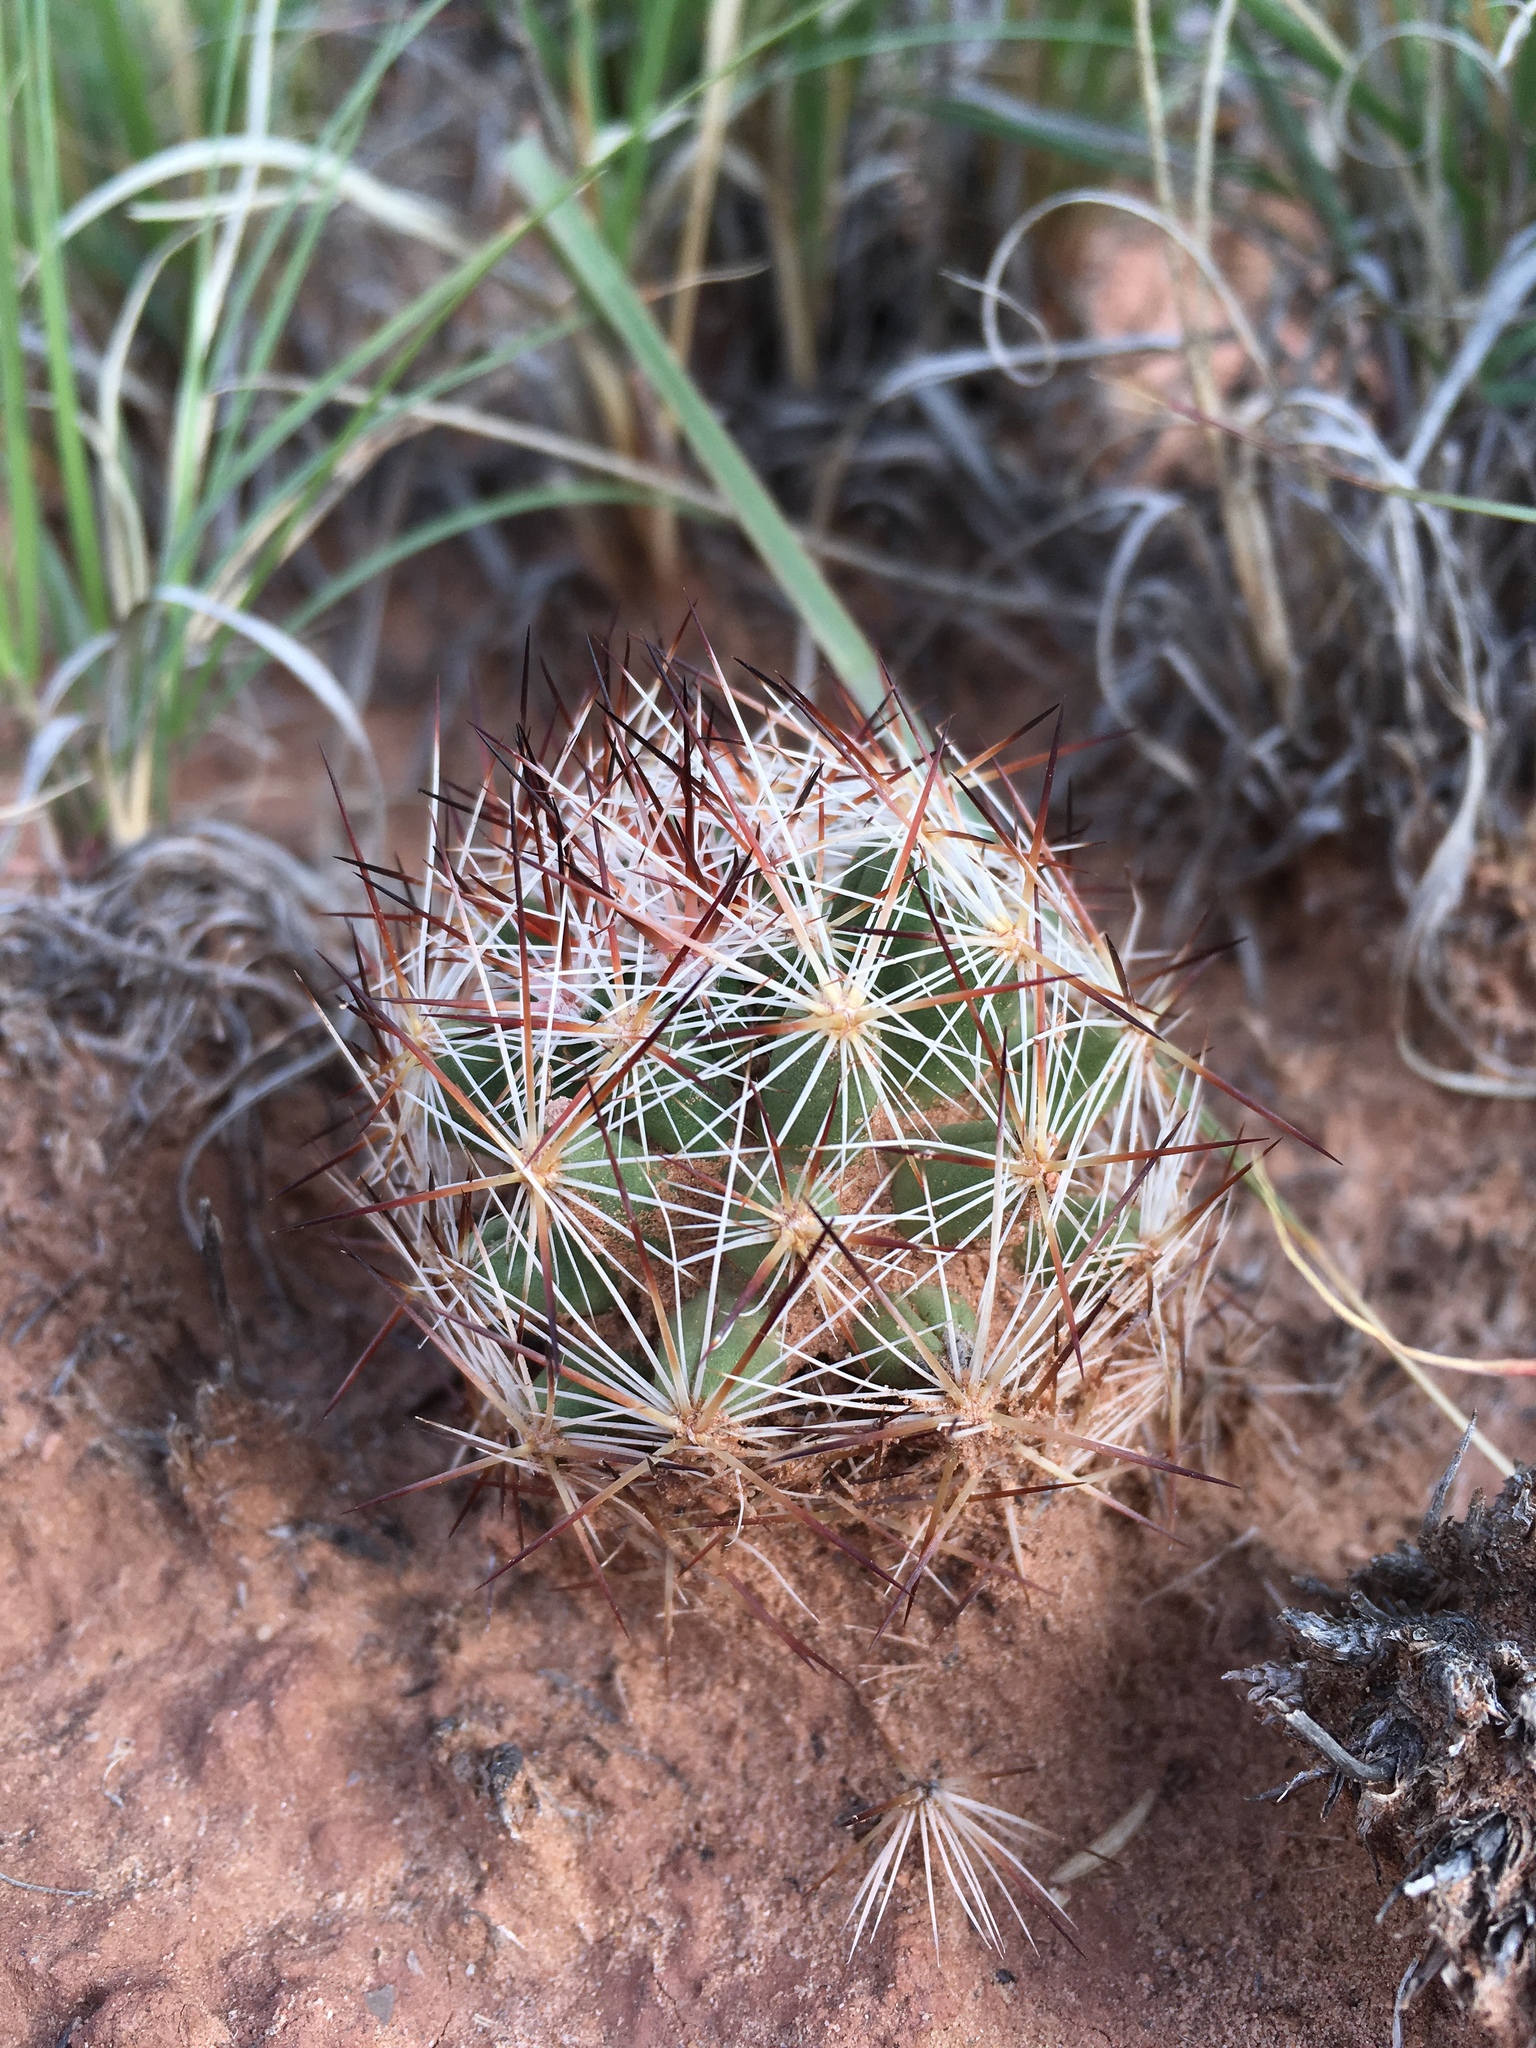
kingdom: Plantae
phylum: Tracheophyta
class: Magnoliopsida
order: Caryophyllales
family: Cactaceae
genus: Pelecyphora
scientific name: Pelecyphora vivipara
